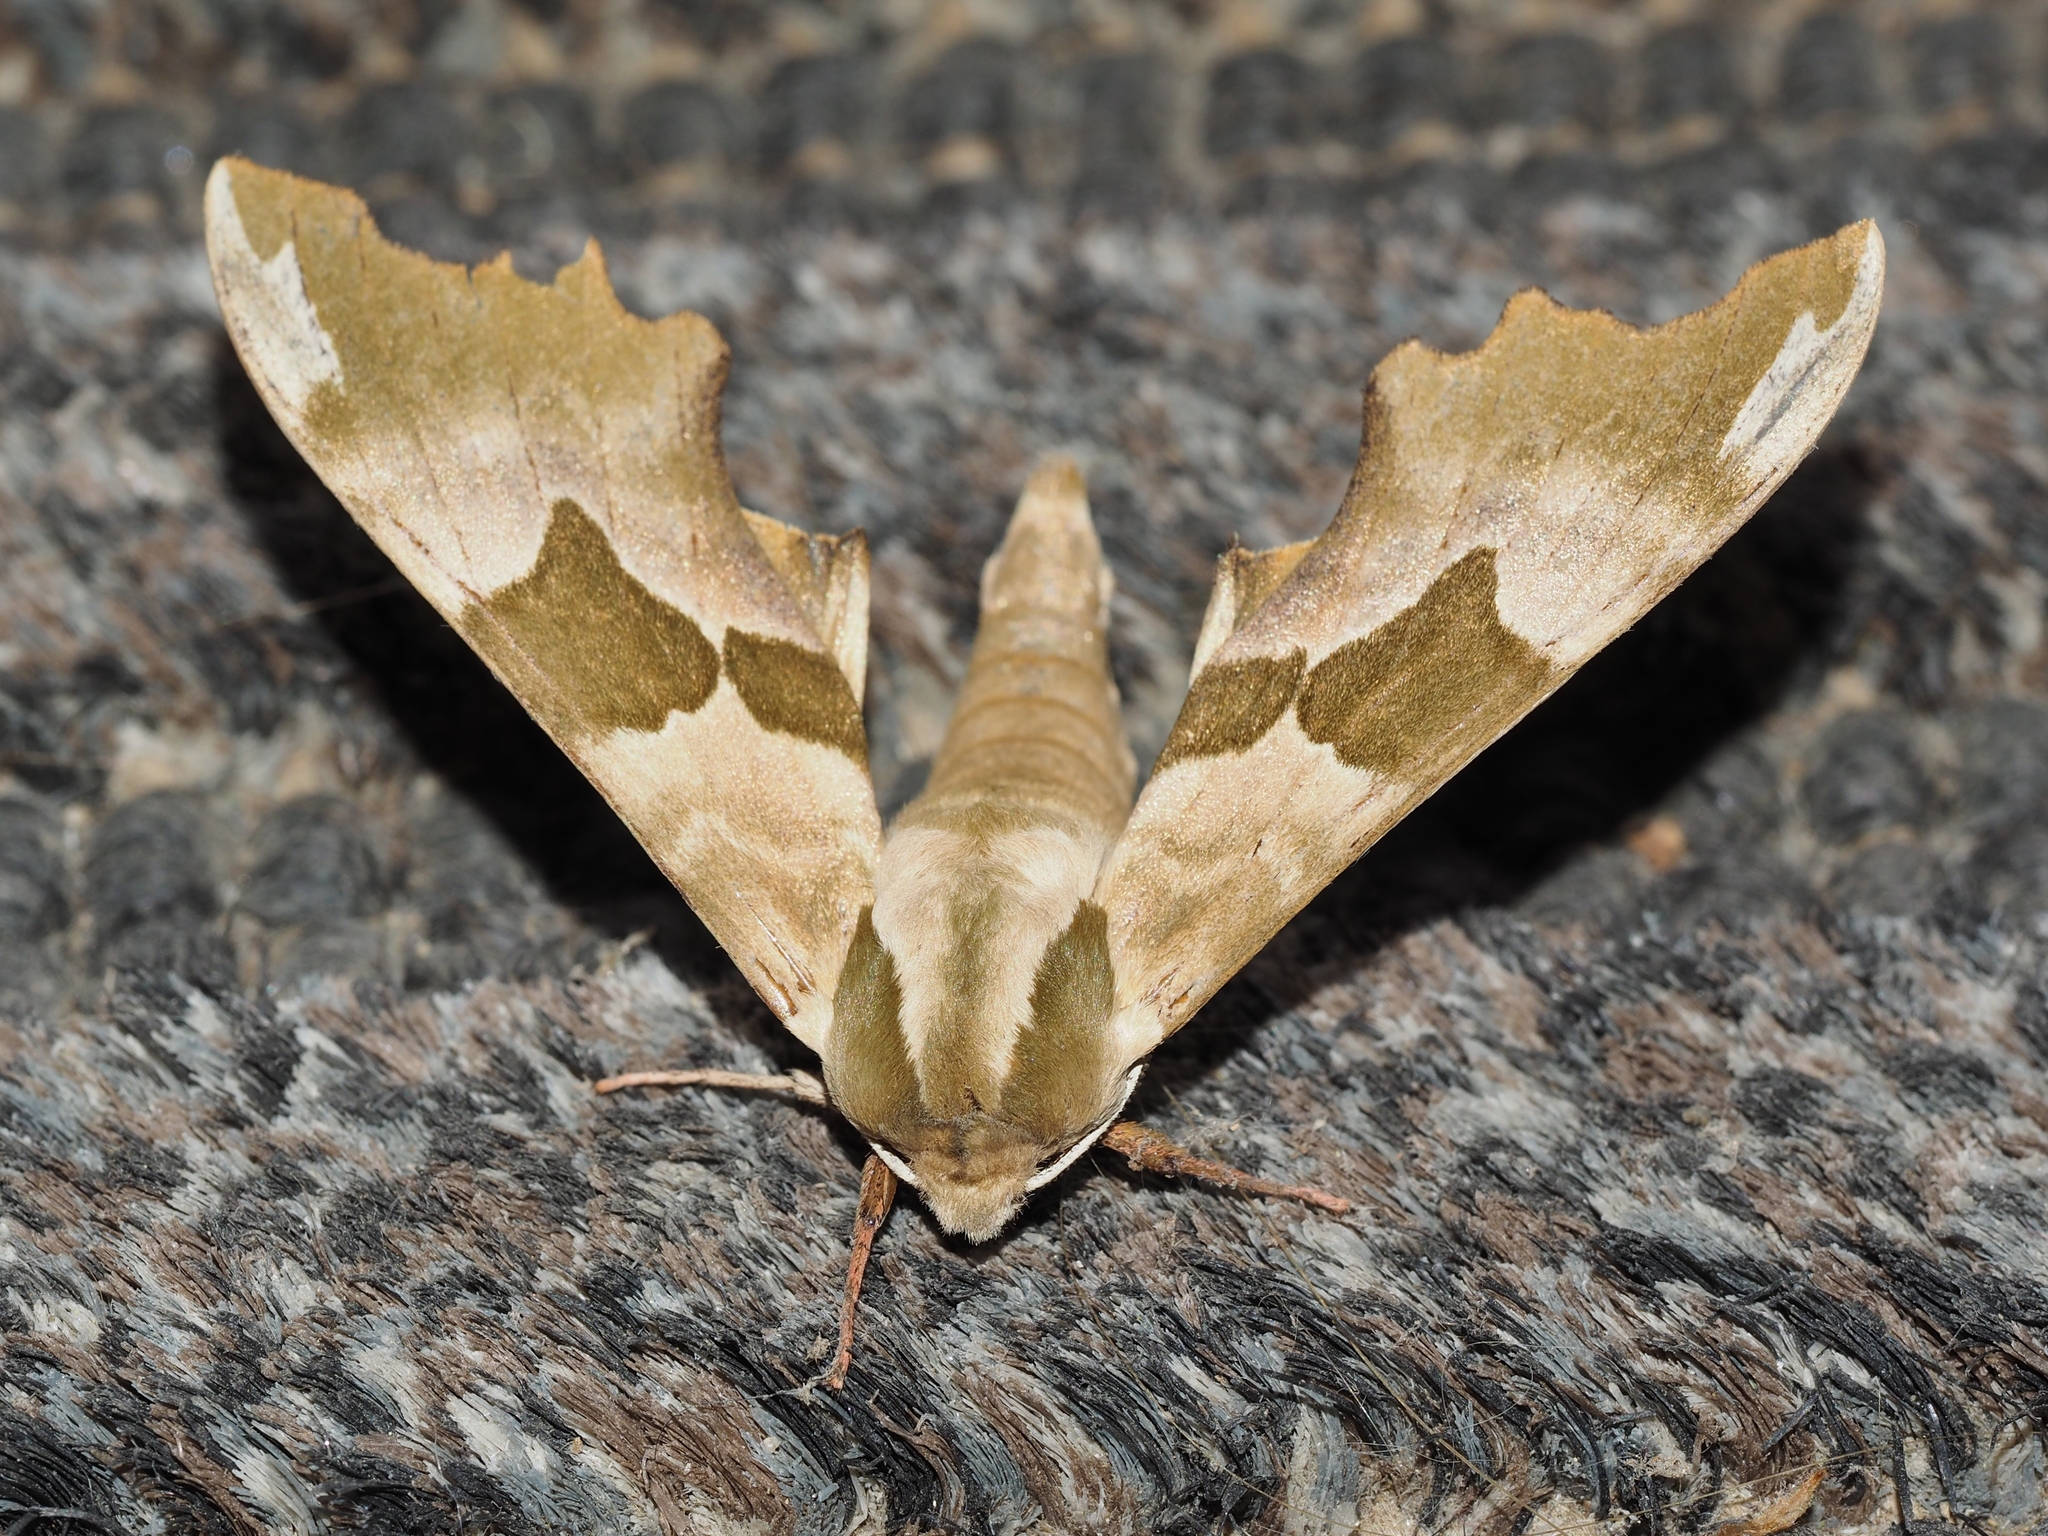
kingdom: Animalia
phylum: Arthropoda
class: Insecta
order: Lepidoptera
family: Sphingidae
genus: Mimas
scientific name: Mimas tiliae
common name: Lime hawk-moth
